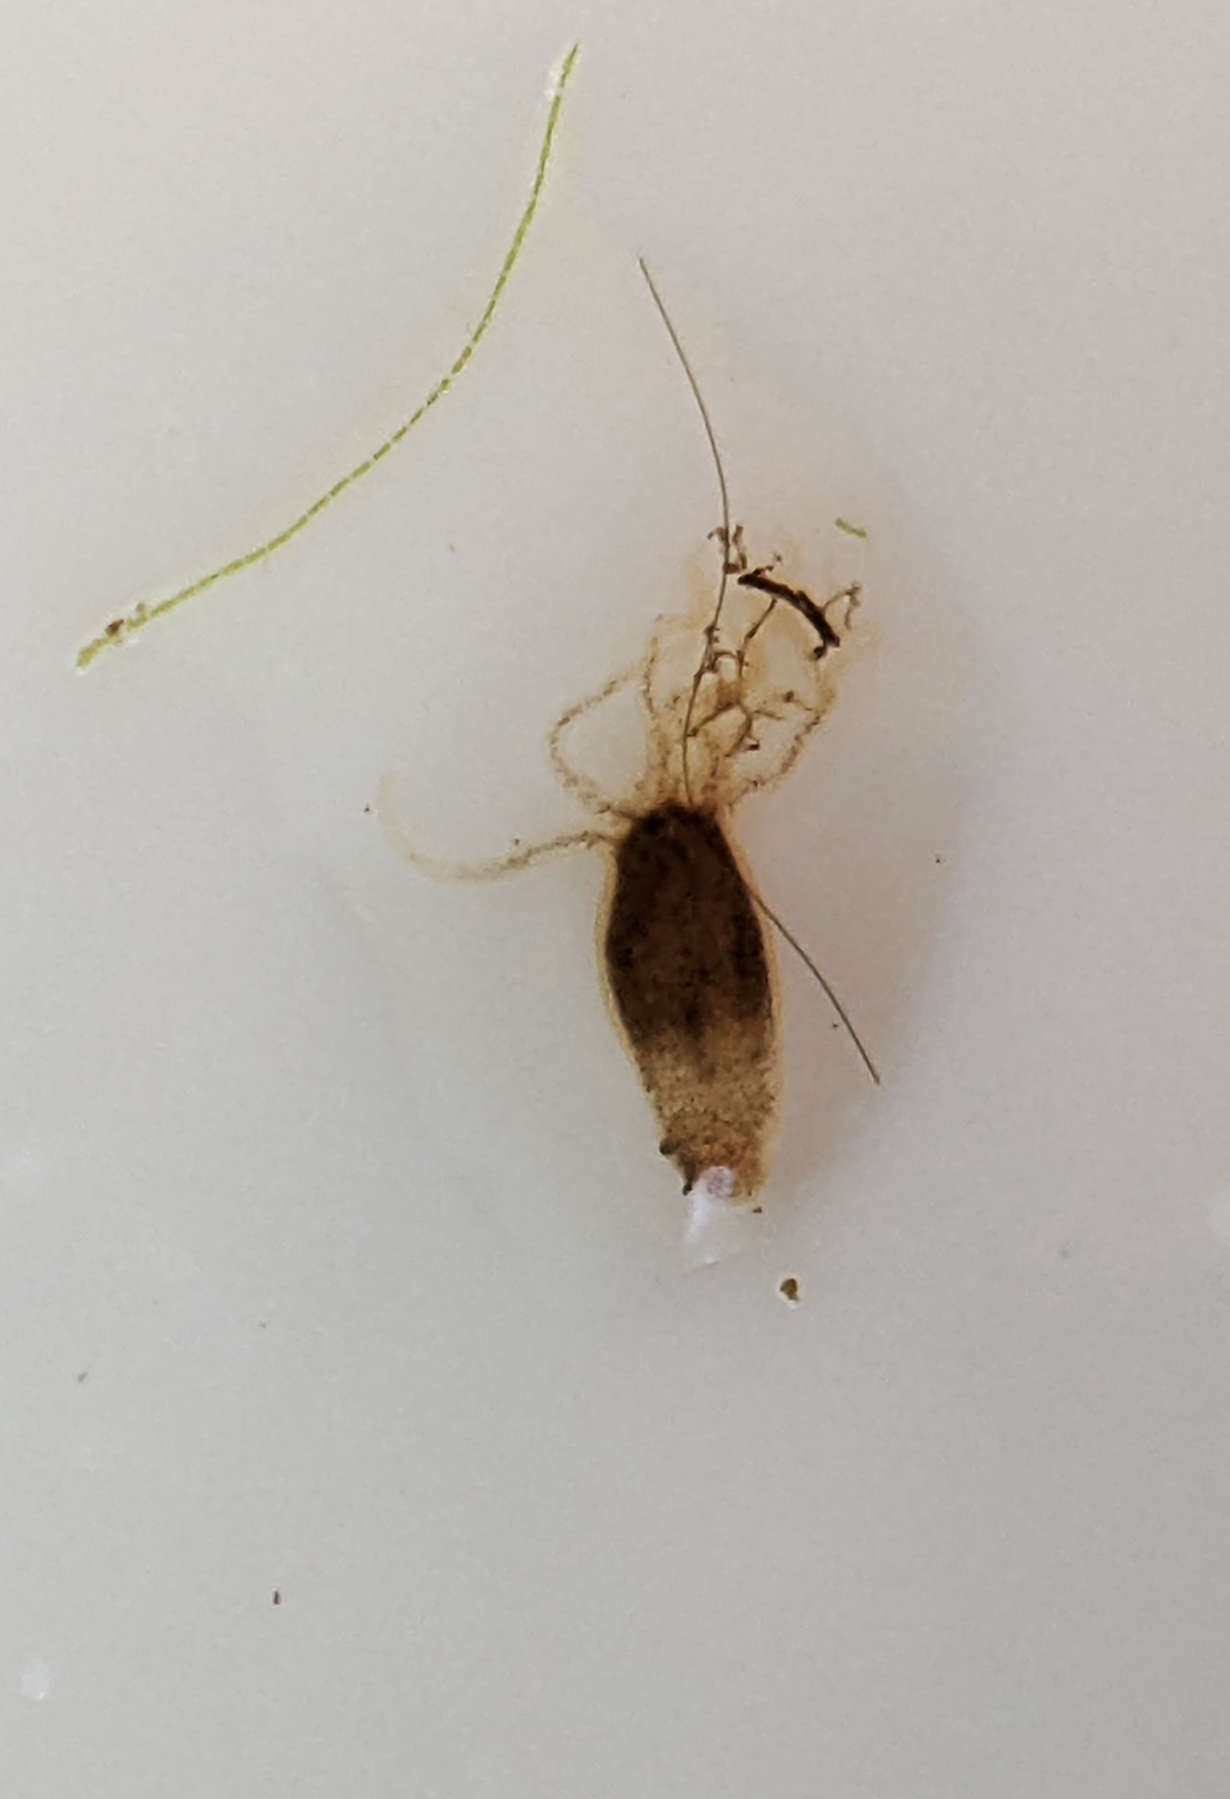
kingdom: Animalia
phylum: Cnidaria
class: Hydrozoa
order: Anthoathecata
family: Hydridae
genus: Hydra
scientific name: Hydra oligactis
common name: Brown hydra
